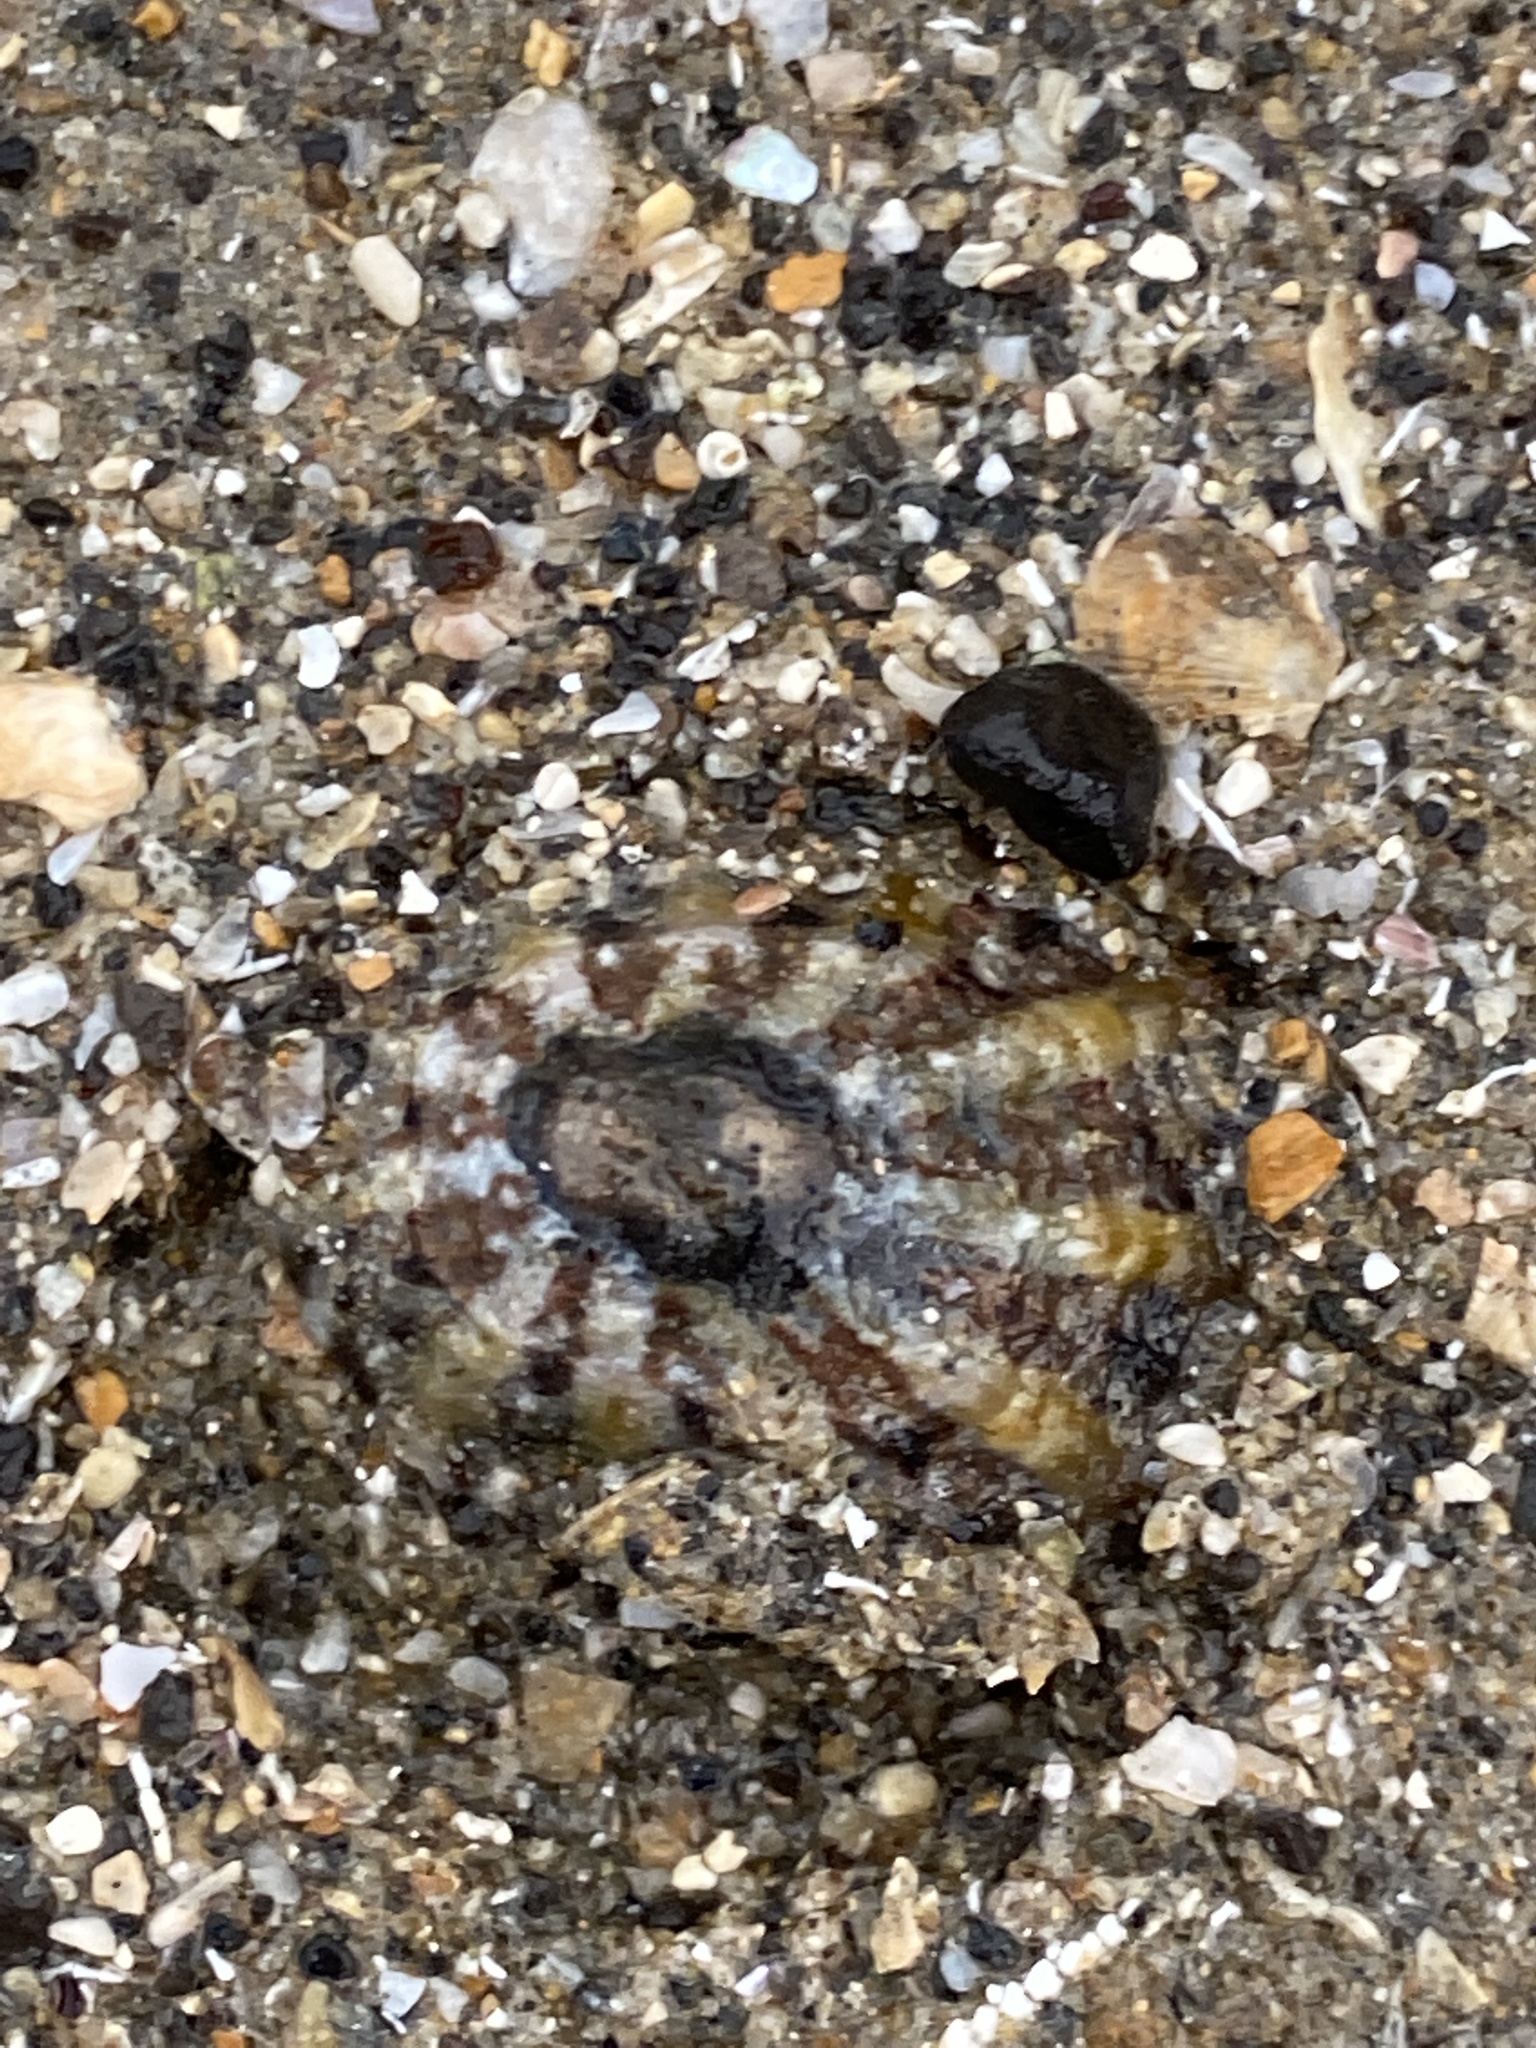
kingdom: Animalia
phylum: Mollusca
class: Gastropoda
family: Nacellidae
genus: Cellana
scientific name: Cellana ornata
